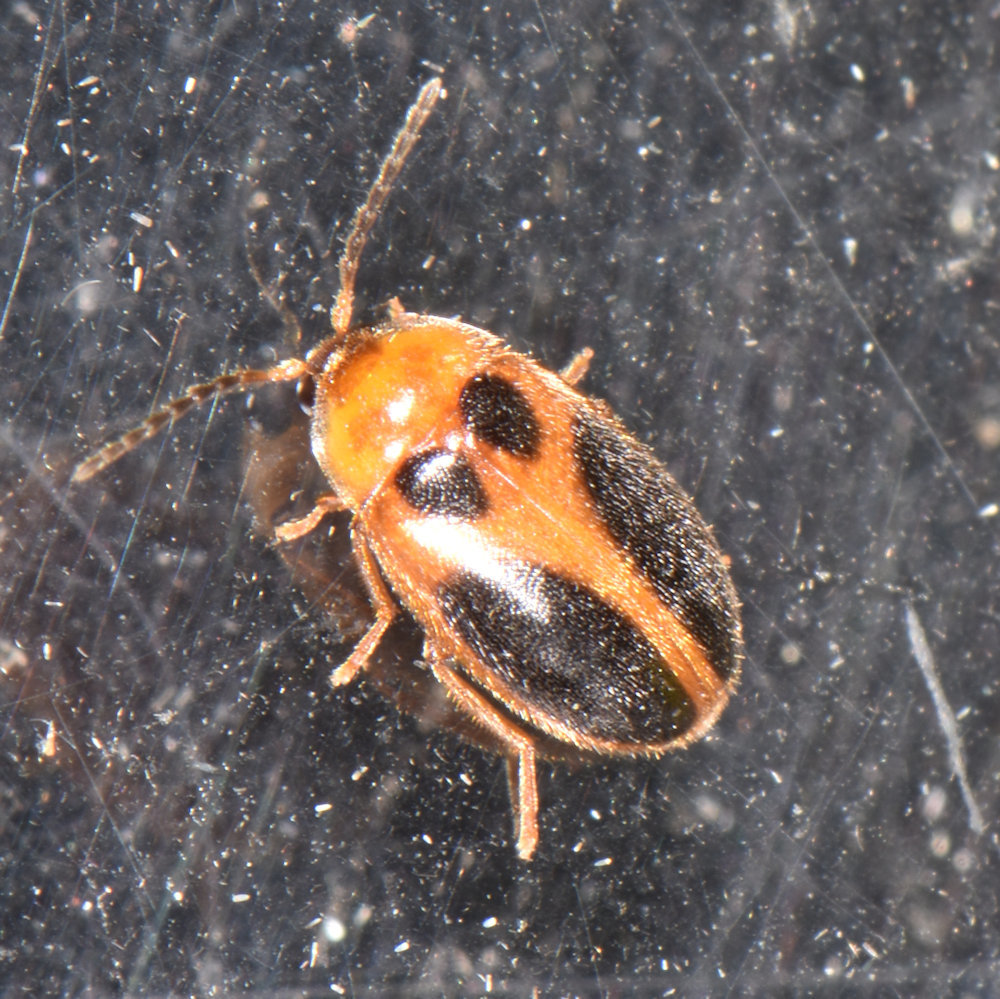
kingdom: Animalia
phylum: Arthropoda
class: Insecta
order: Coleoptera
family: Scirtidae
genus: Sacodes
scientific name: Sacodes pulchella
